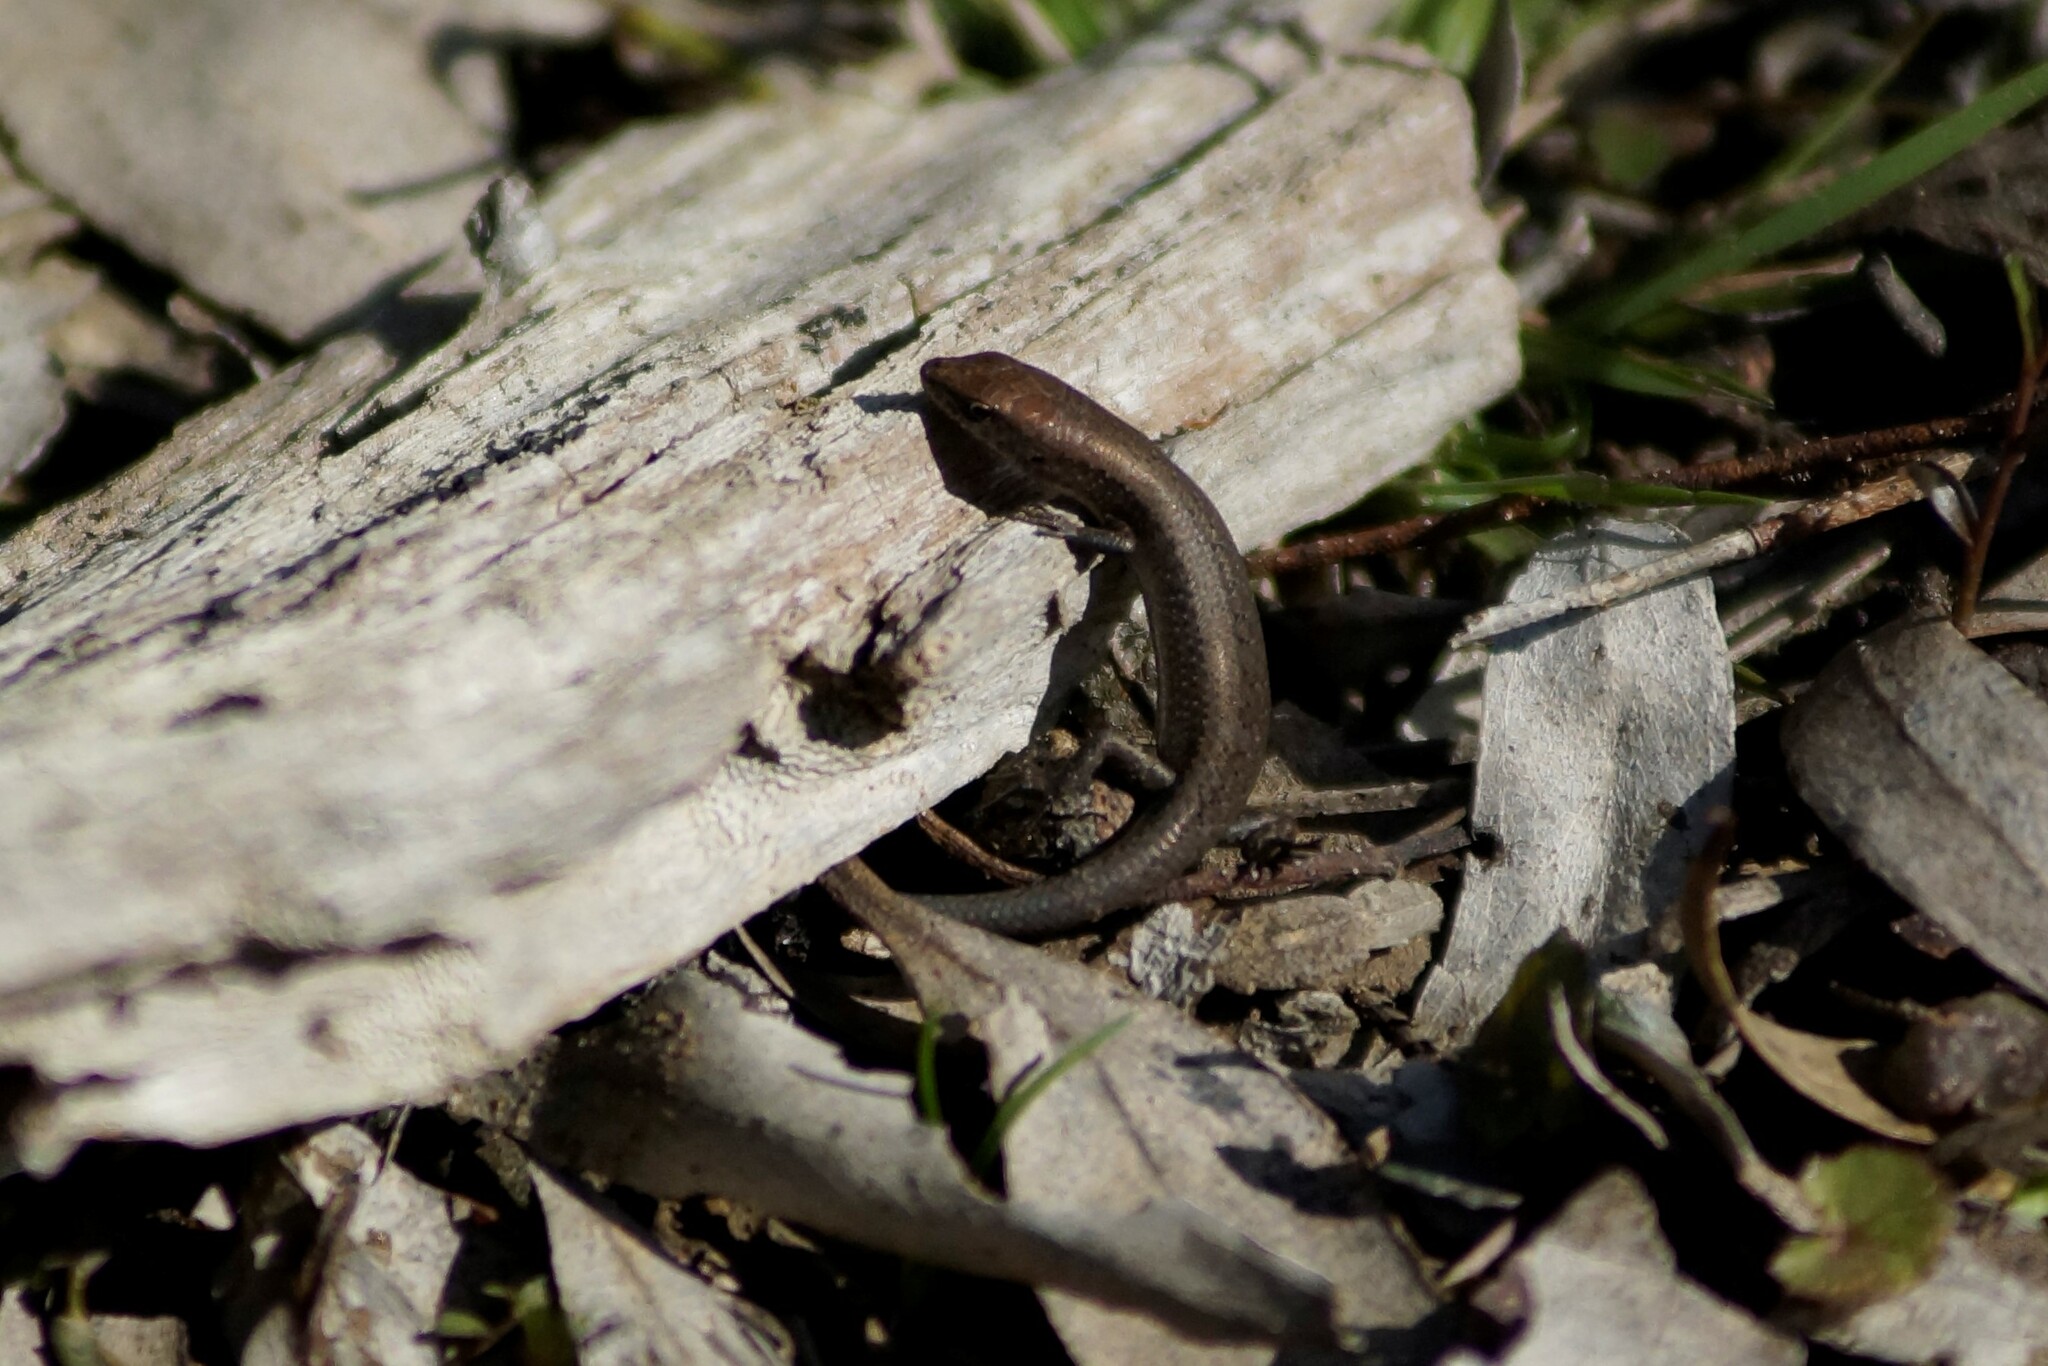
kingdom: Animalia
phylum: Chordata
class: Squamata
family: Scincidae
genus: Lampropholis
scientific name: Lampropholis guichenoti
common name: Garden skink
